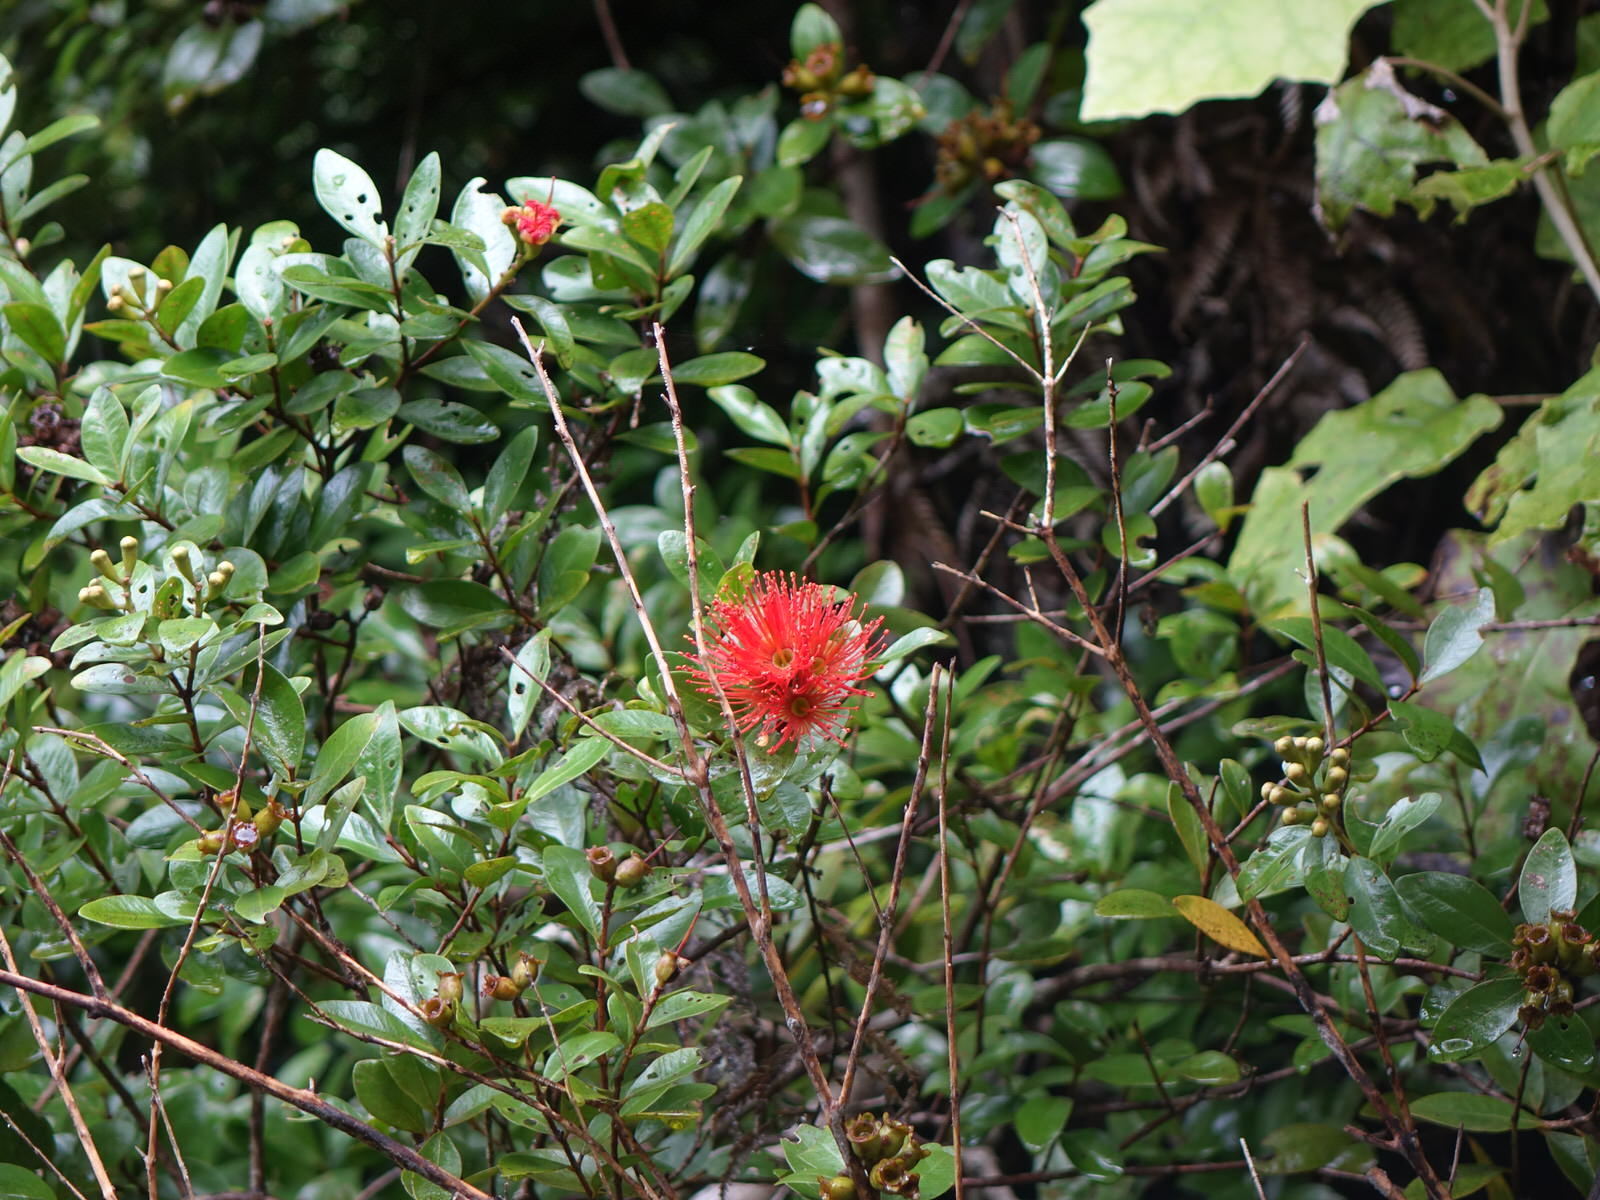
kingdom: Plantae
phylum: Tracheophyta
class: Magnoliopsida
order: Myrtales
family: Myrtaceae
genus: Metrosideros
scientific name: Metrosideros fulgens
